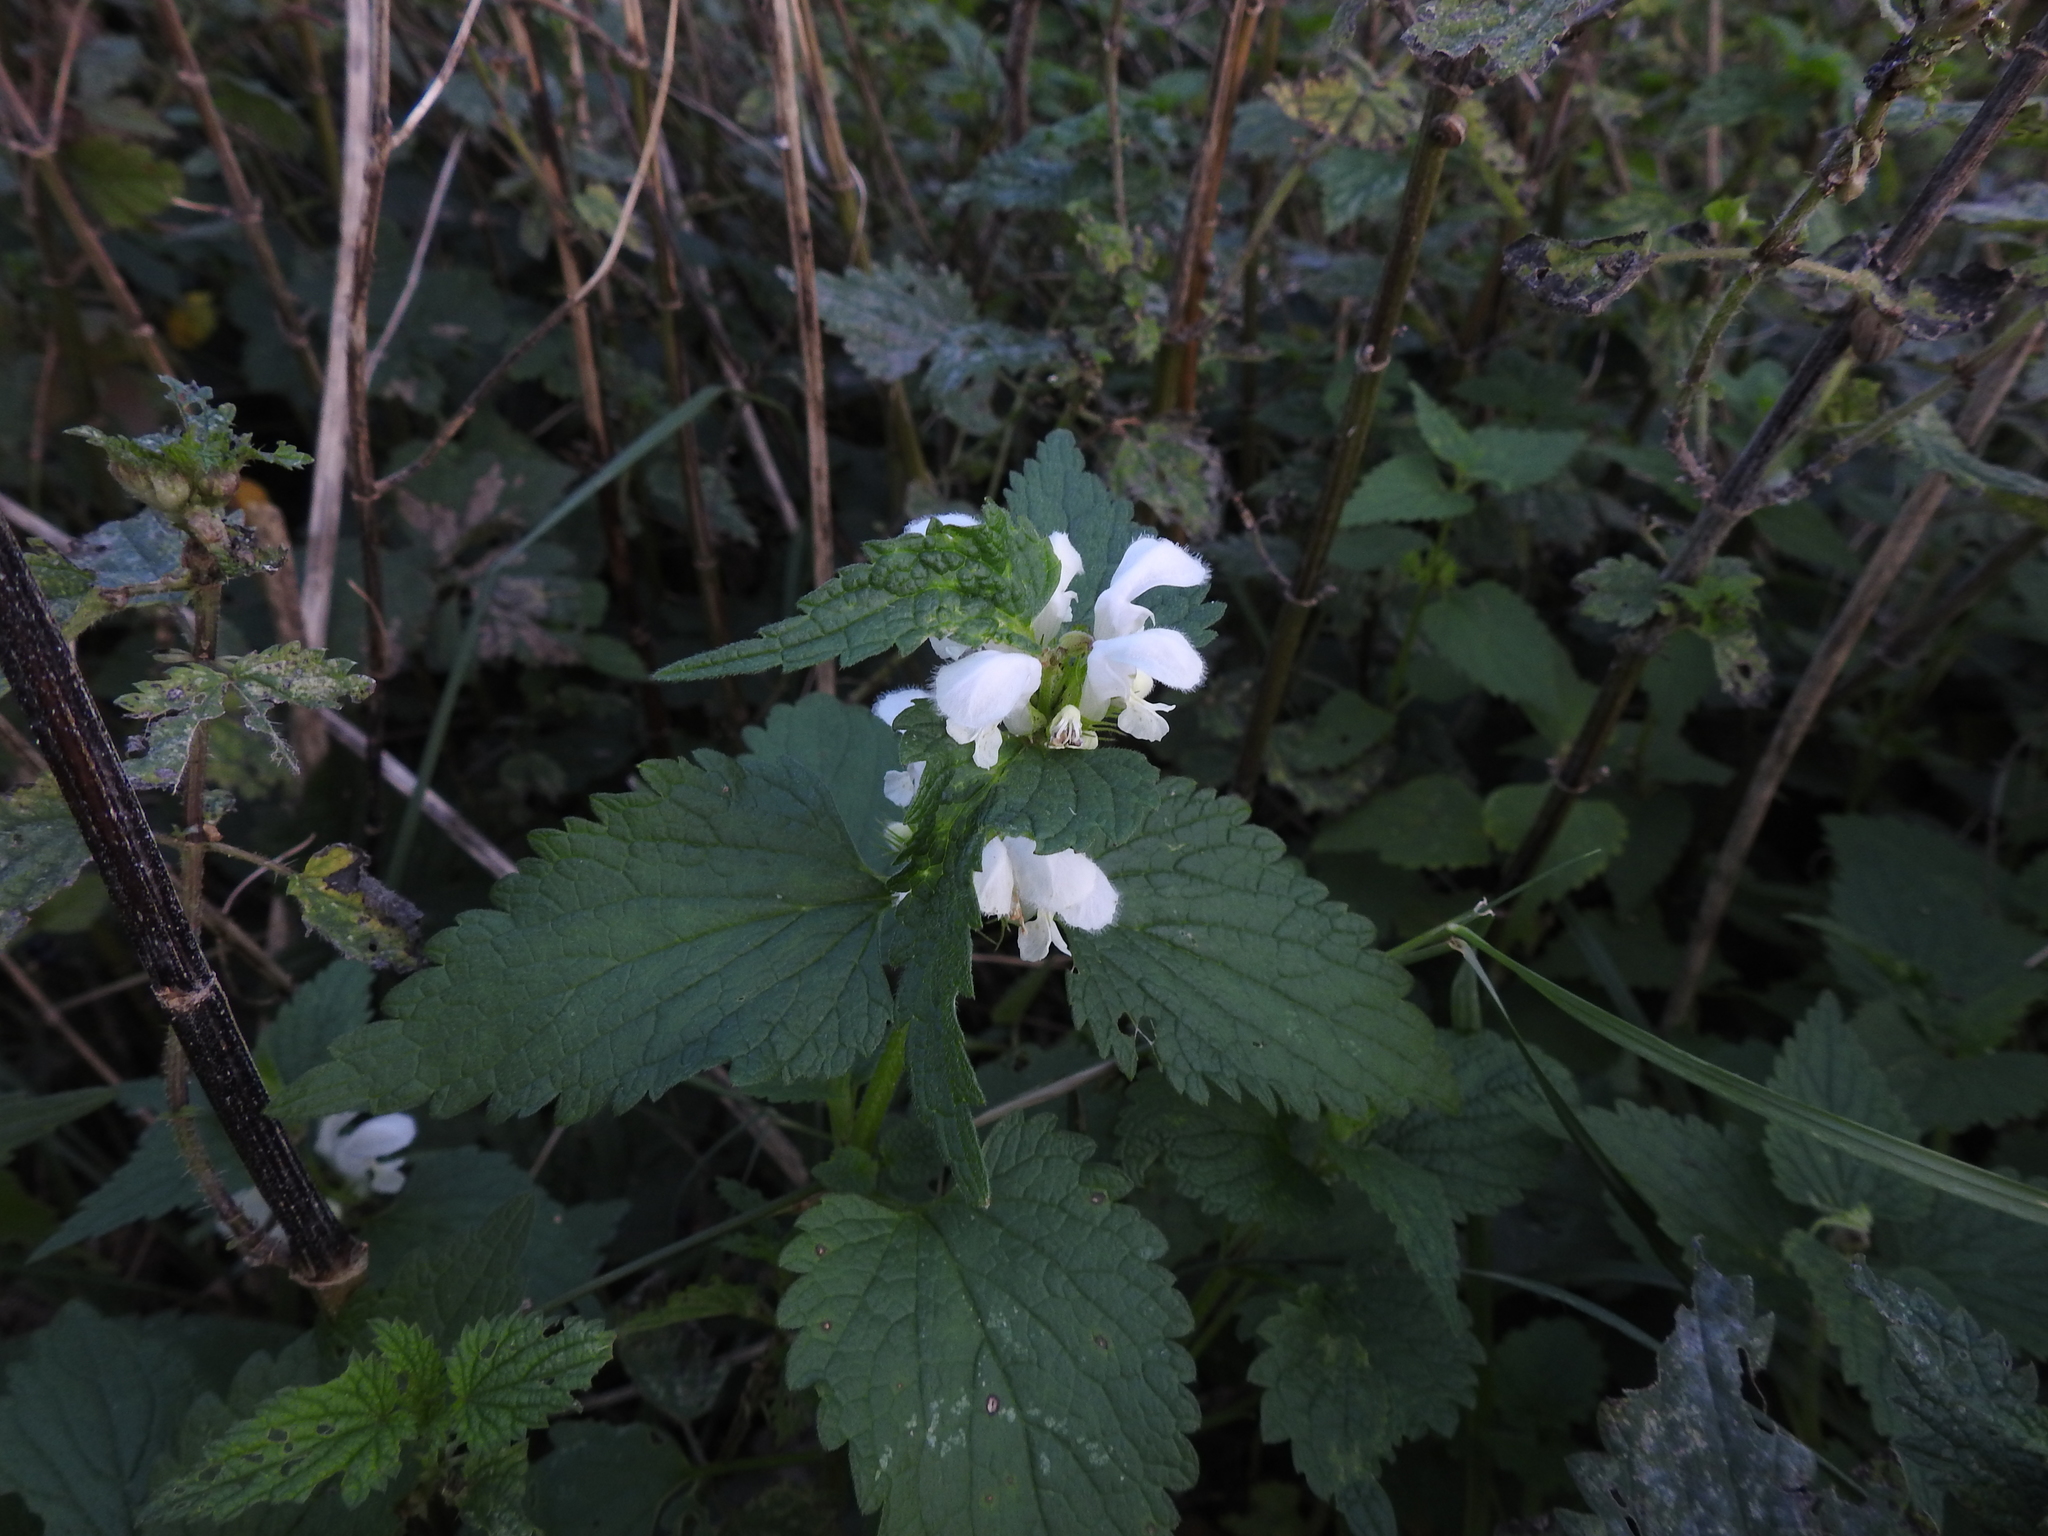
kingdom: Plantae
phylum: Tracheophyta
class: Magnoliopsida
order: Lamiales
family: Lamiaceae
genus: Lamium
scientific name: Lamium album
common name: White dead-nettle
